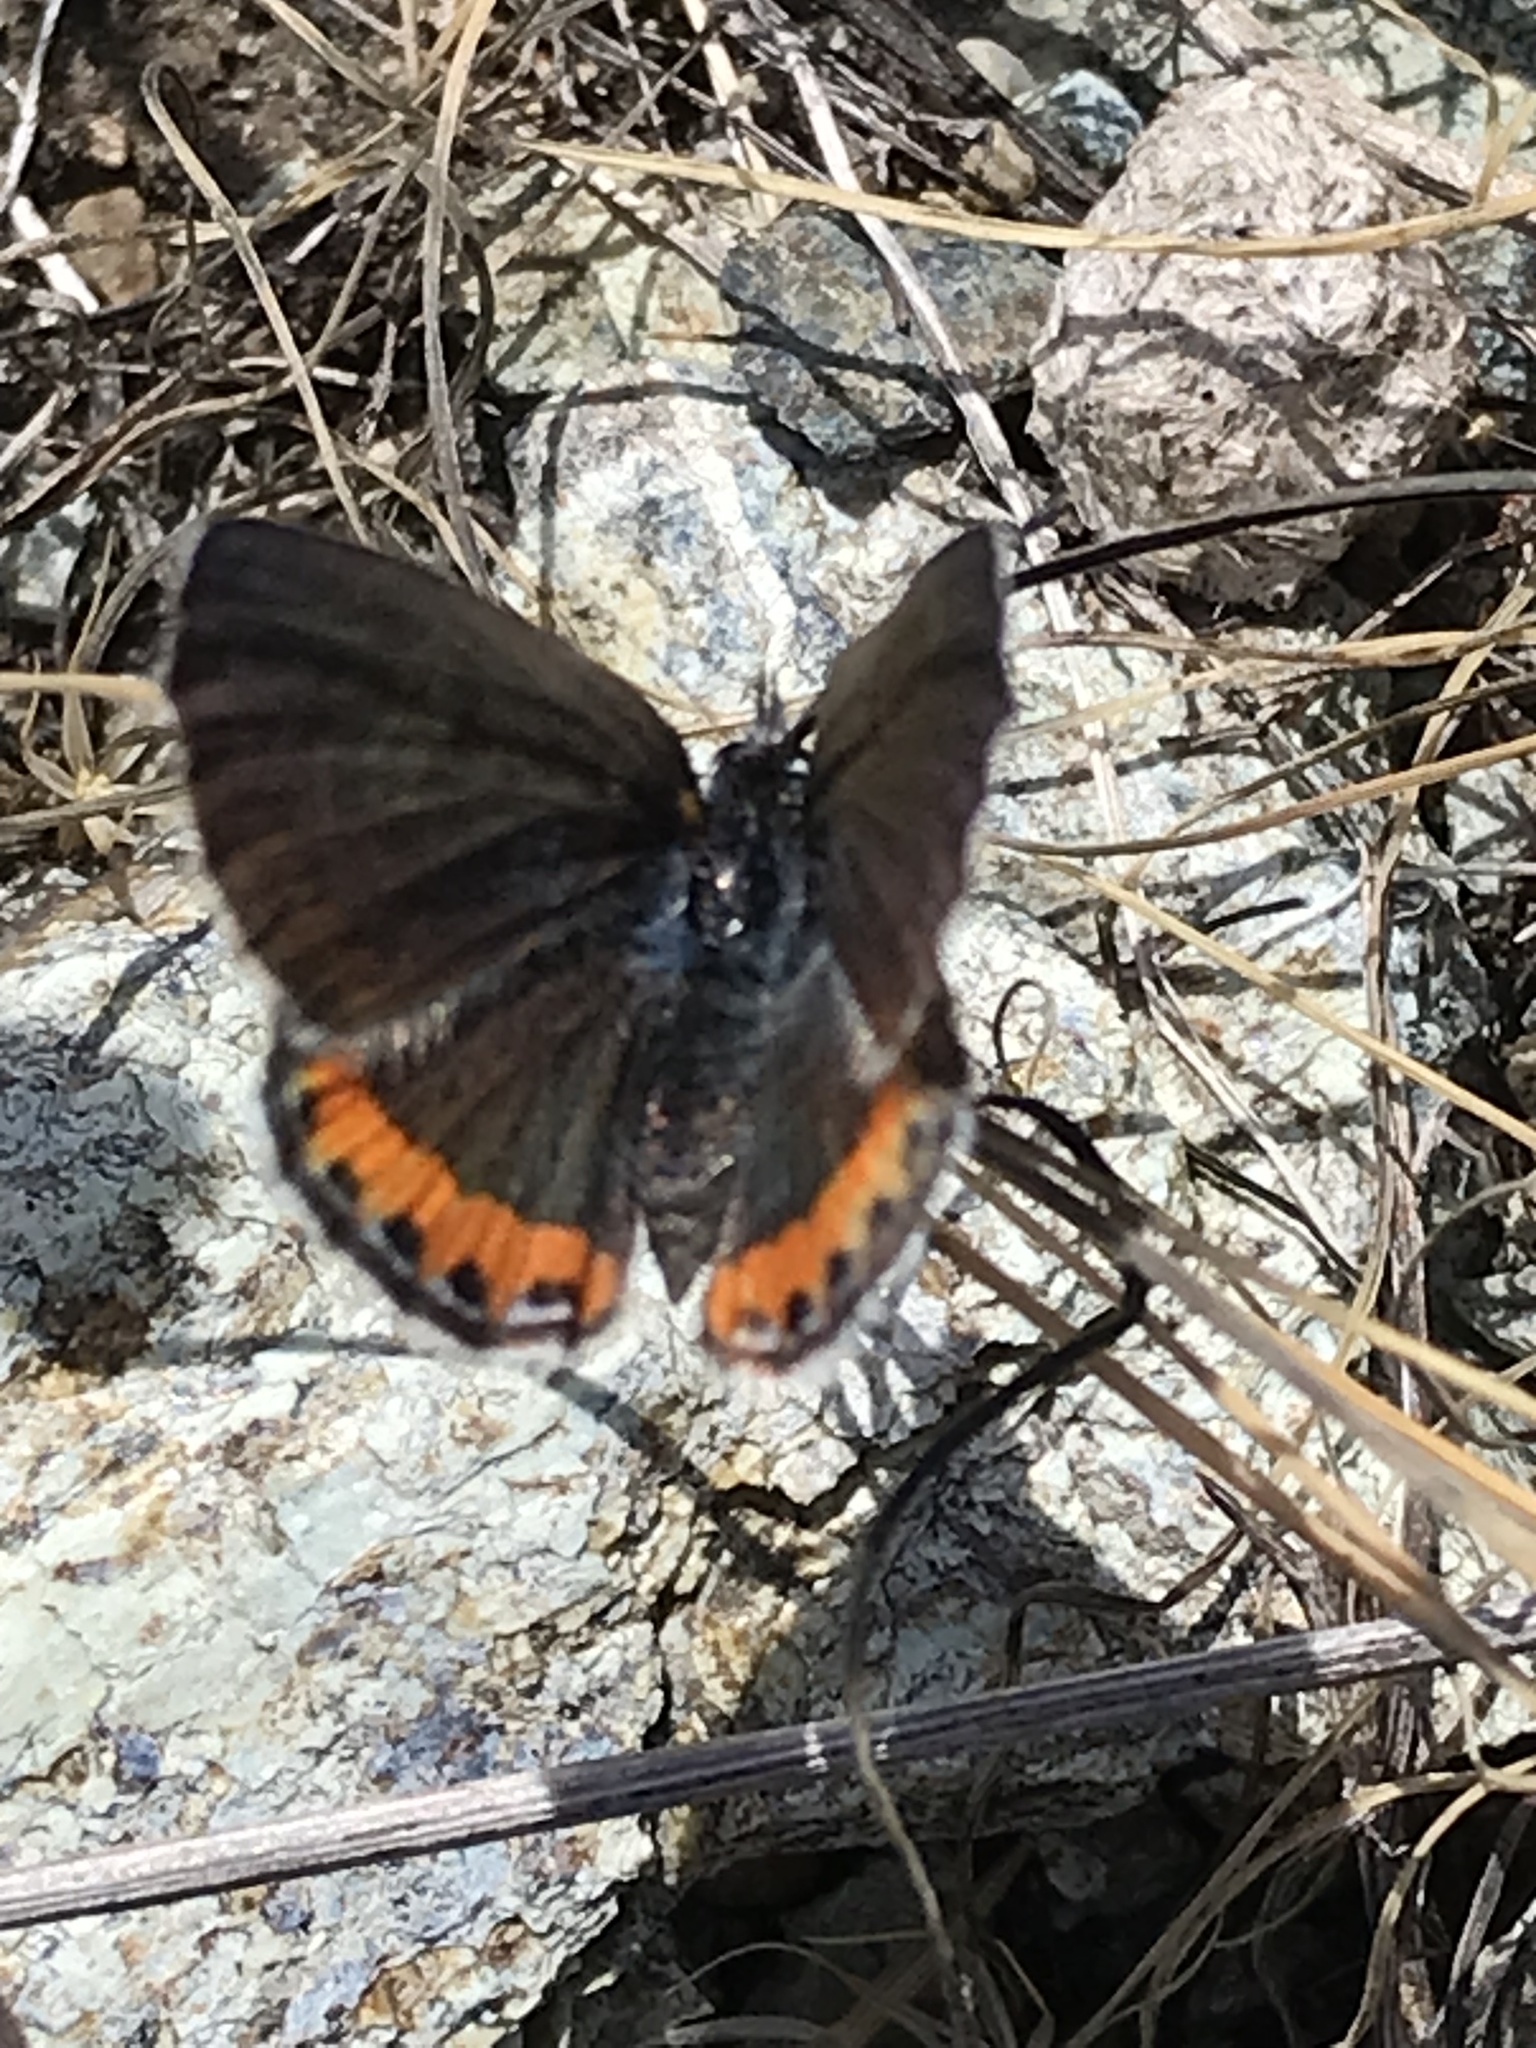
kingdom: Animalia
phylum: Arthropoda
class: Insecta
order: Lepidoptera
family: Lycaenidae
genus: Icaricia
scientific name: Icaricia acmon
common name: Acmon blue
